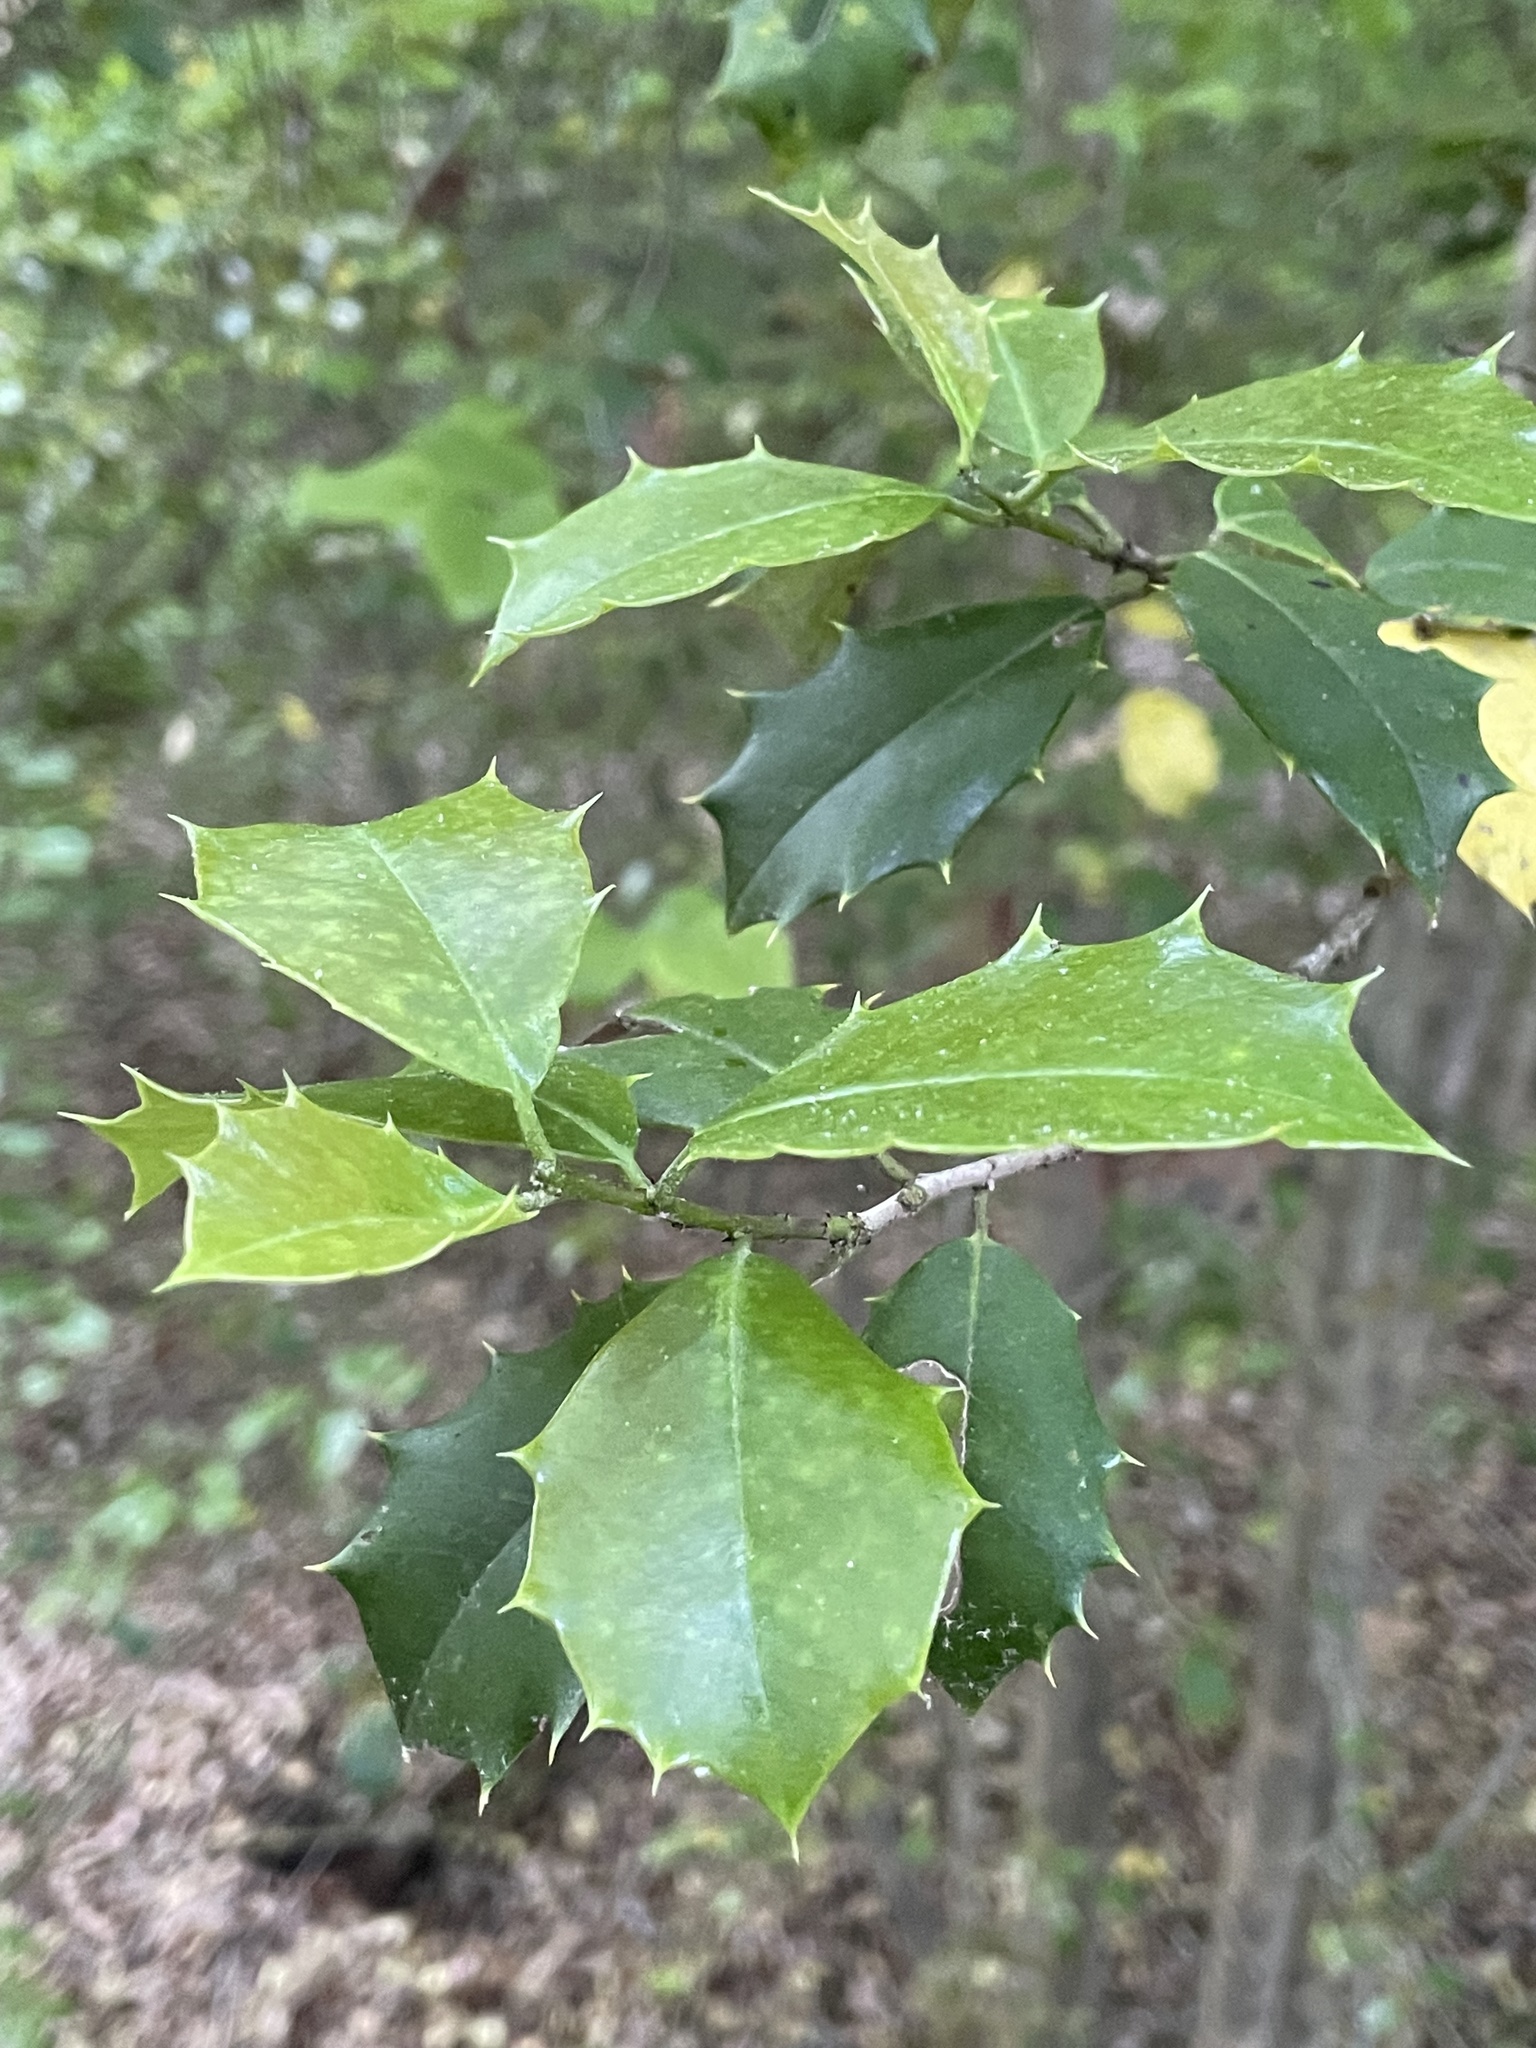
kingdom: Plantae
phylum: Tracheophyta
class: Magnoliopsida
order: Aquifoliales
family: Aquifoliaceae
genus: Ilex
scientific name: Ilex opaca
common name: American holly
